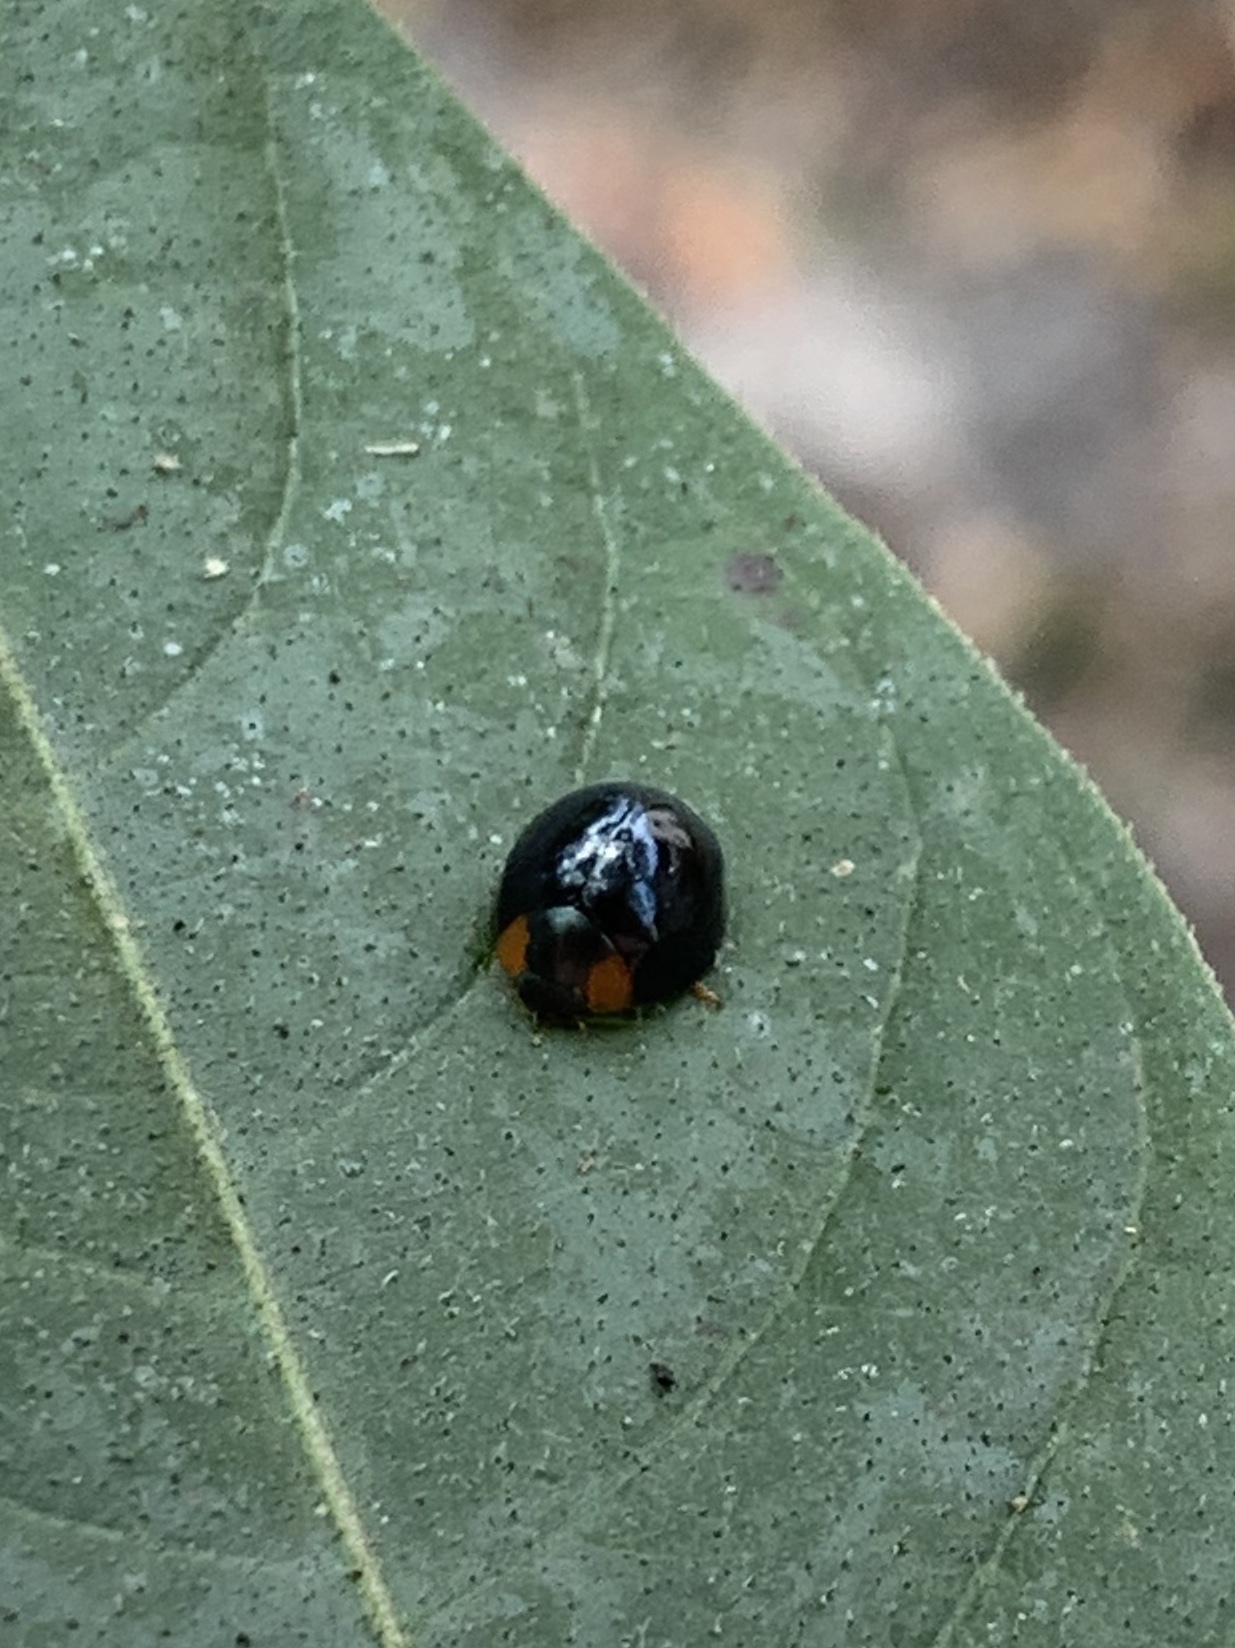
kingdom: Animalia
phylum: Arthropoda
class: Insecta
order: Coleoptera
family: Coccinellidae
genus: Curinus
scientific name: Curinus coeruleus
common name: Ladybird beetle
